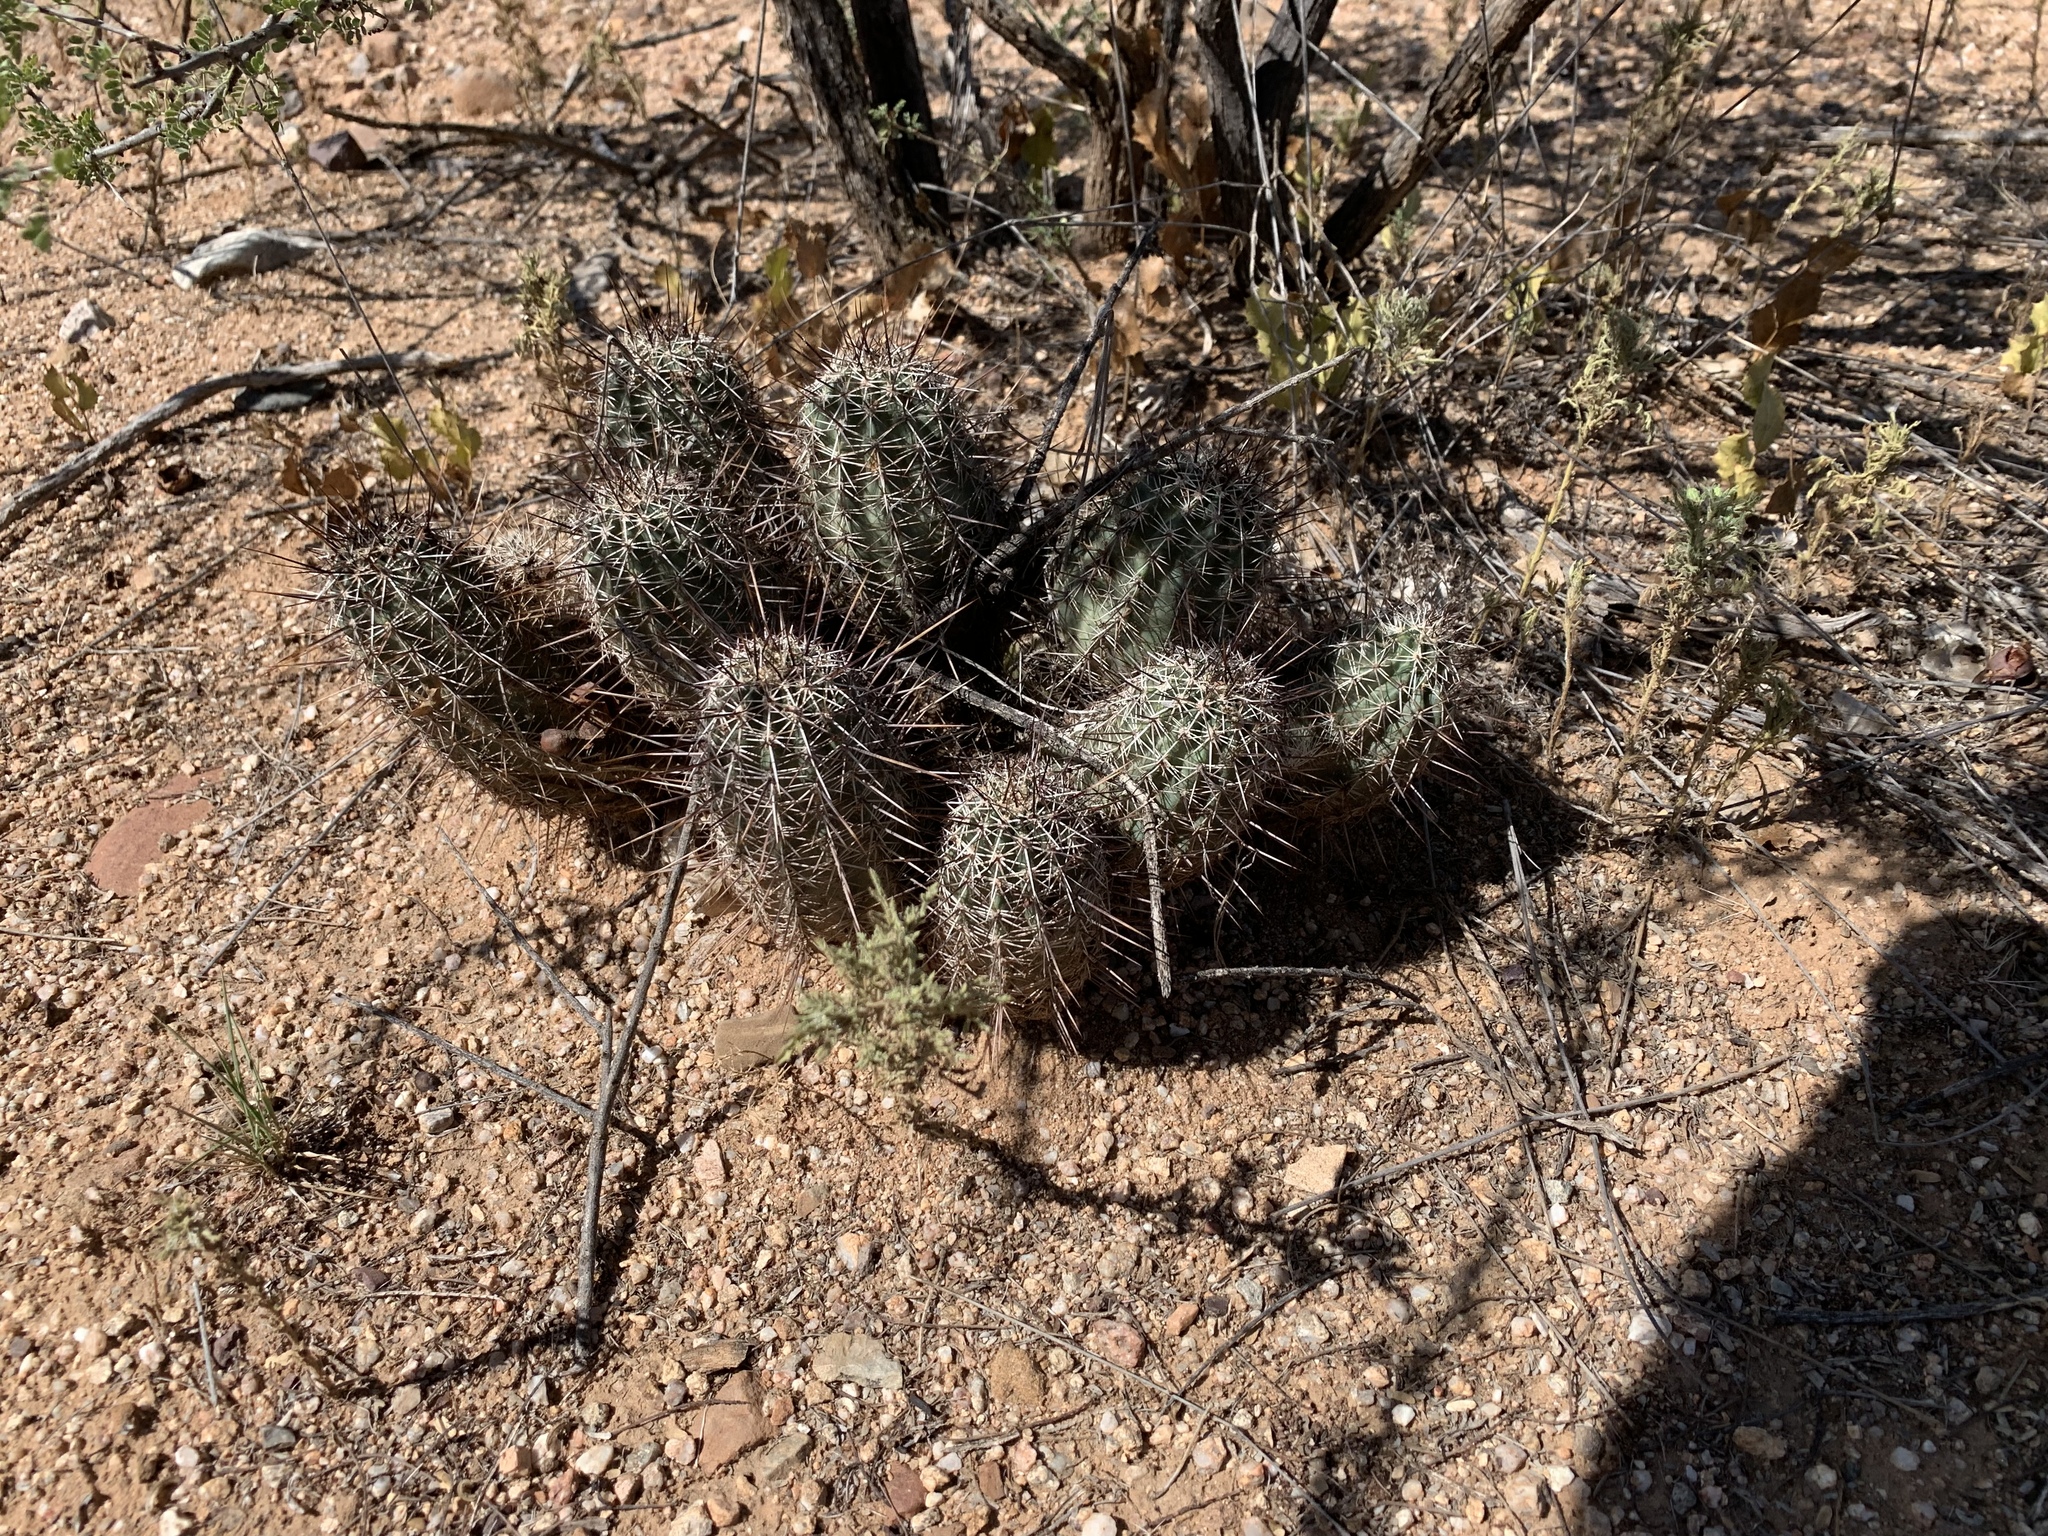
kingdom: Plantae
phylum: Tracheophyta
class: Magnoliopsida
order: Caryophyllales
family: Cactaceae
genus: Echinocereus
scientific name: Echinocereus fasciculatus
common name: Bundle hedgehog
